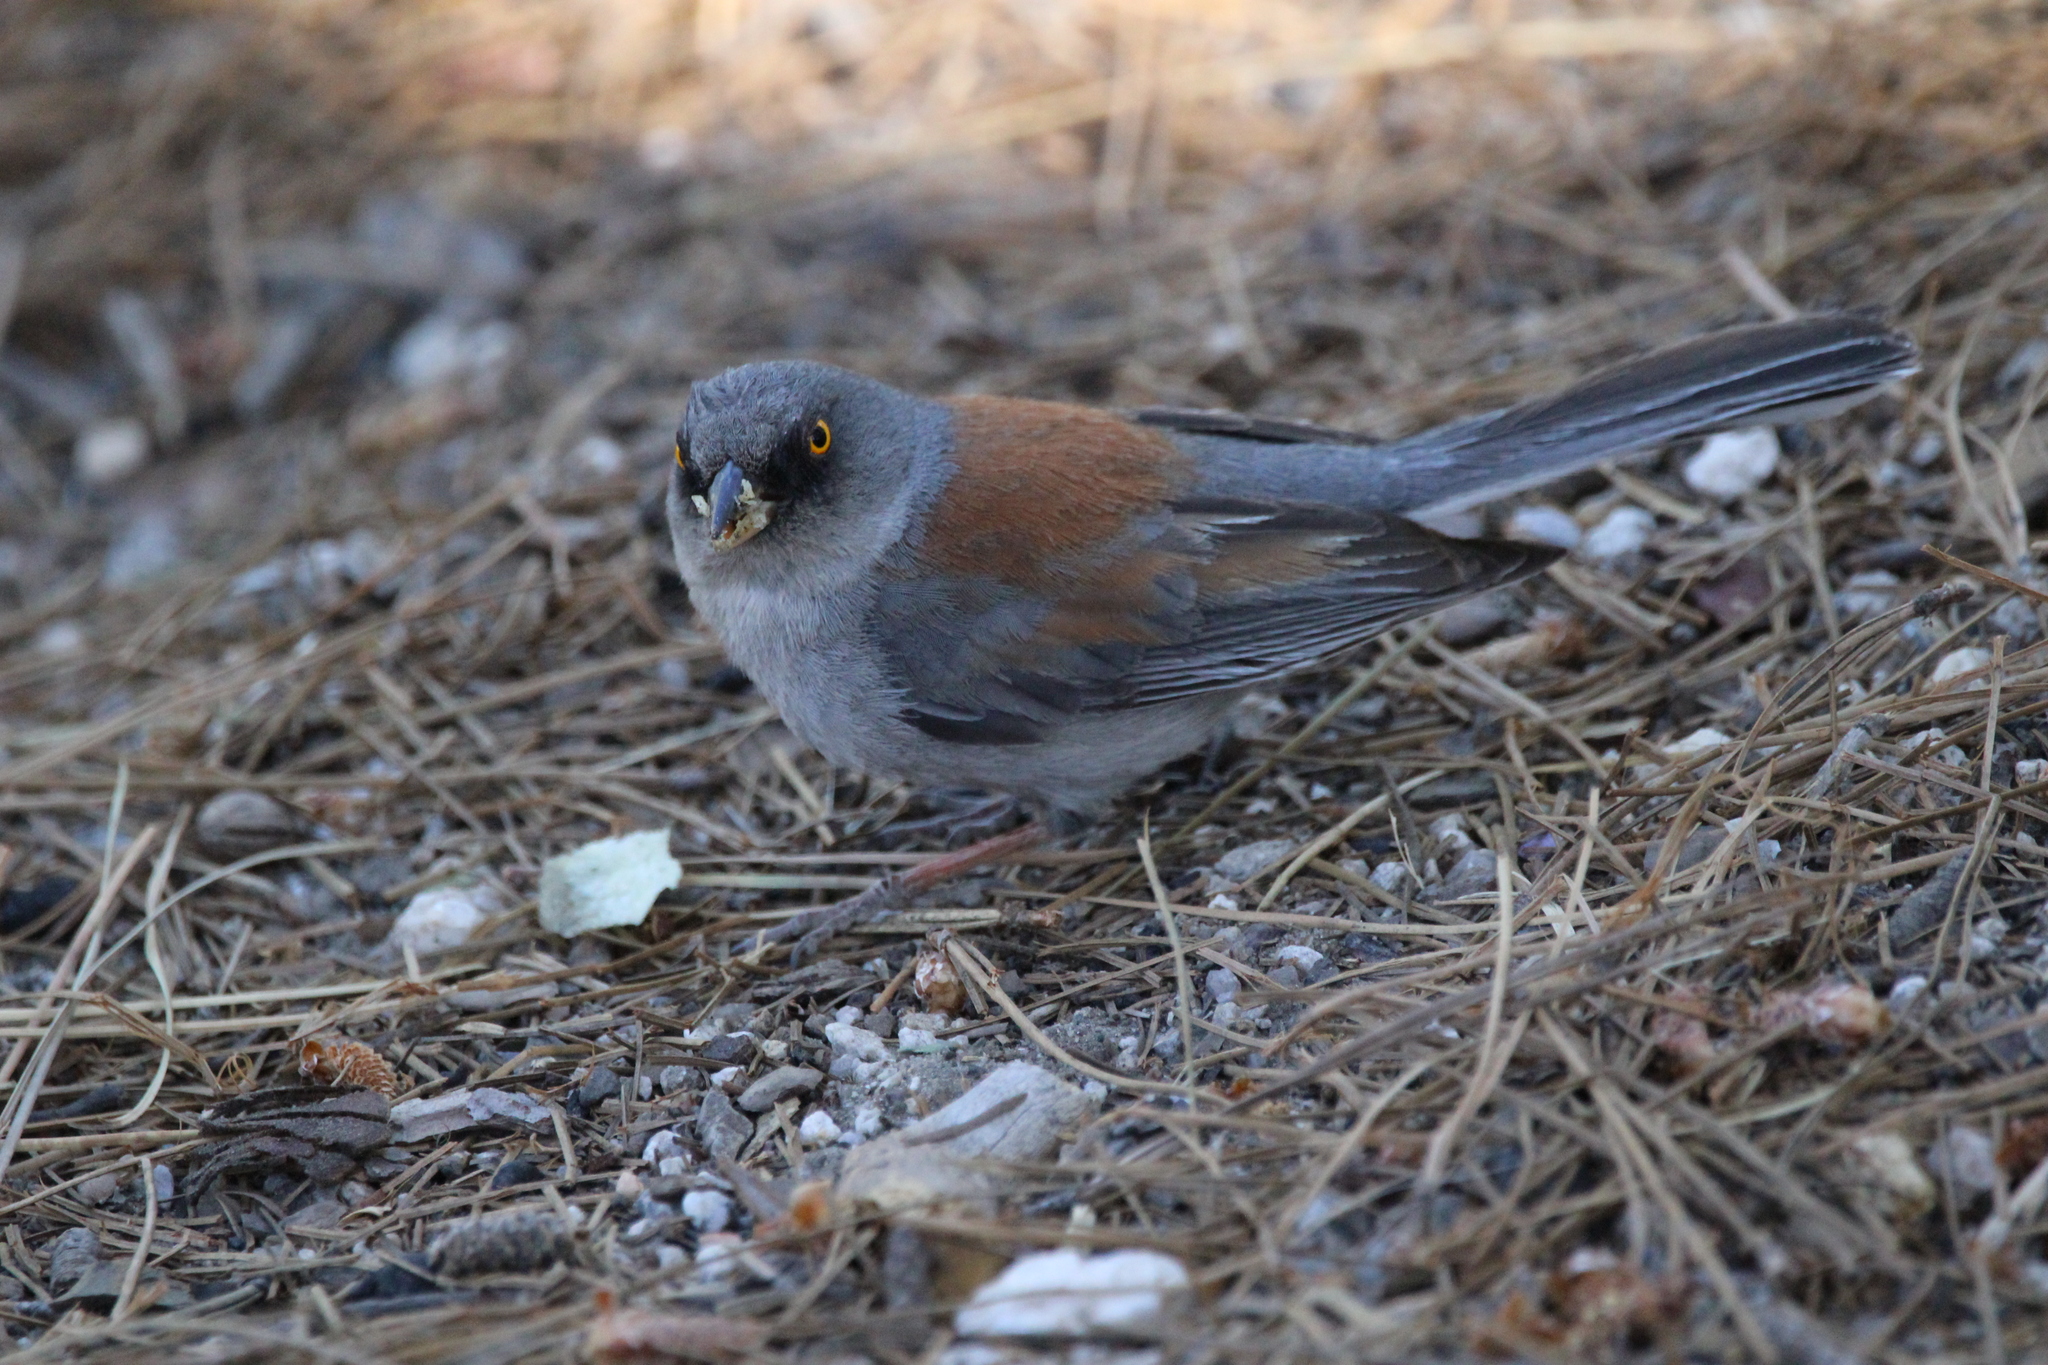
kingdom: Animalia
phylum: Chordata
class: Aves
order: Passeriformes
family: Passerellidae
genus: Junco
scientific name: Junco phaeonotus
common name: Yellow-eyed junco
